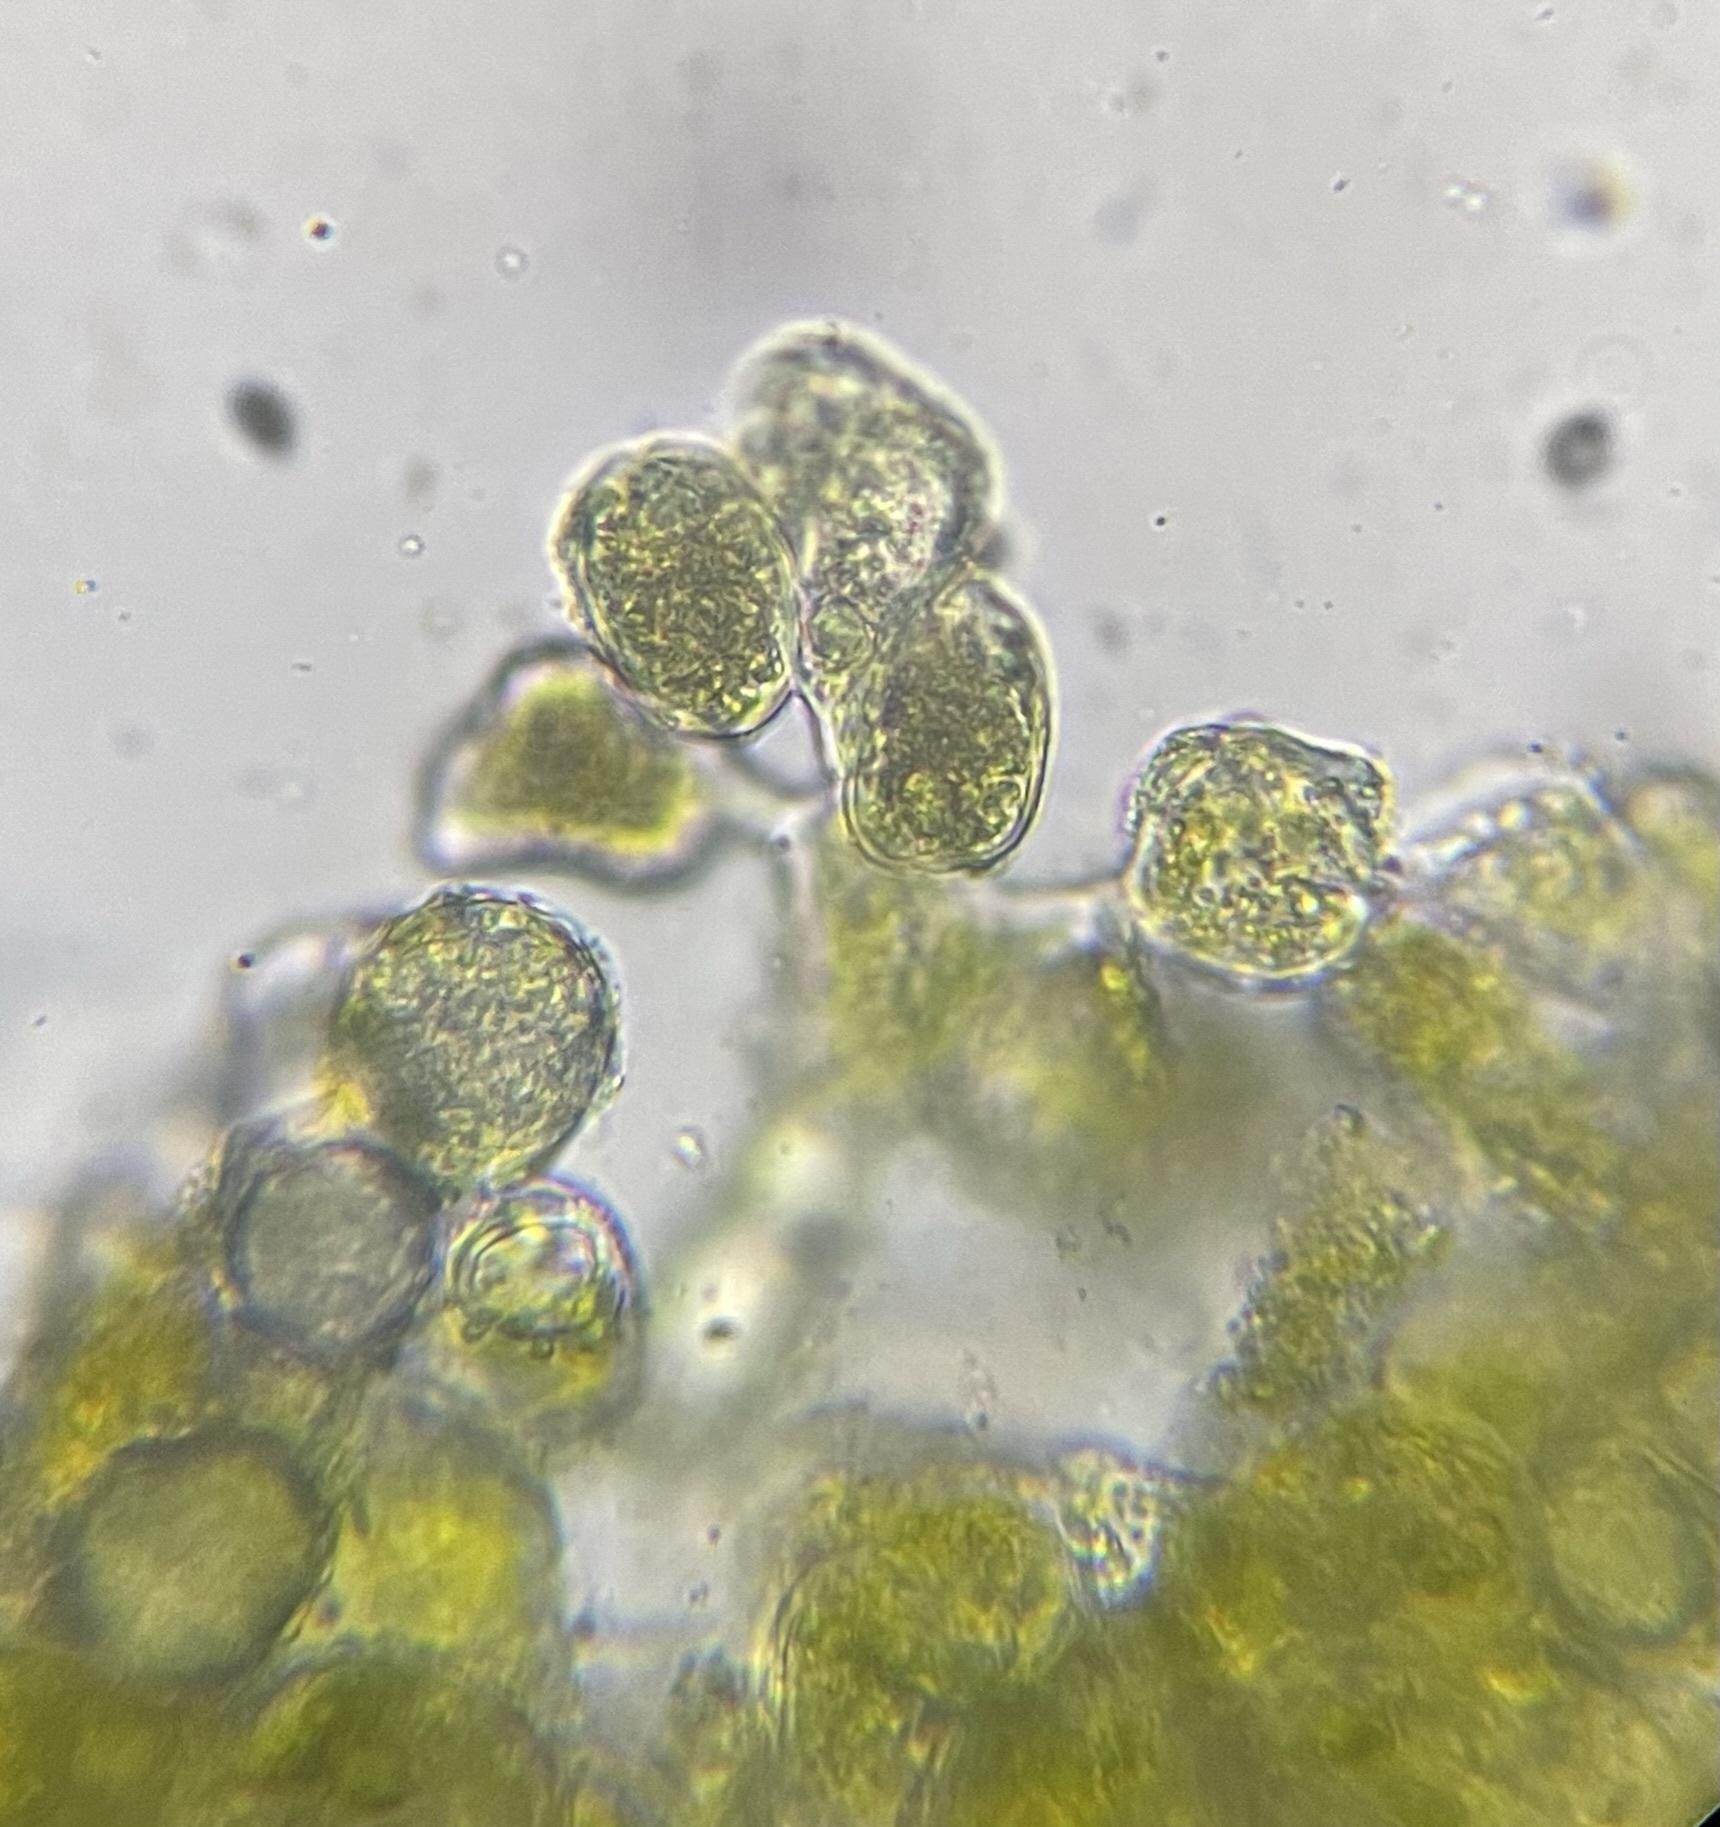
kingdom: Plantae
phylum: Tracheophyta
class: Magnoliopsida
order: Malpighiales
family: Picrodendraceae
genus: Tetracoccus
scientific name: Tetracoccus ilicifolius
